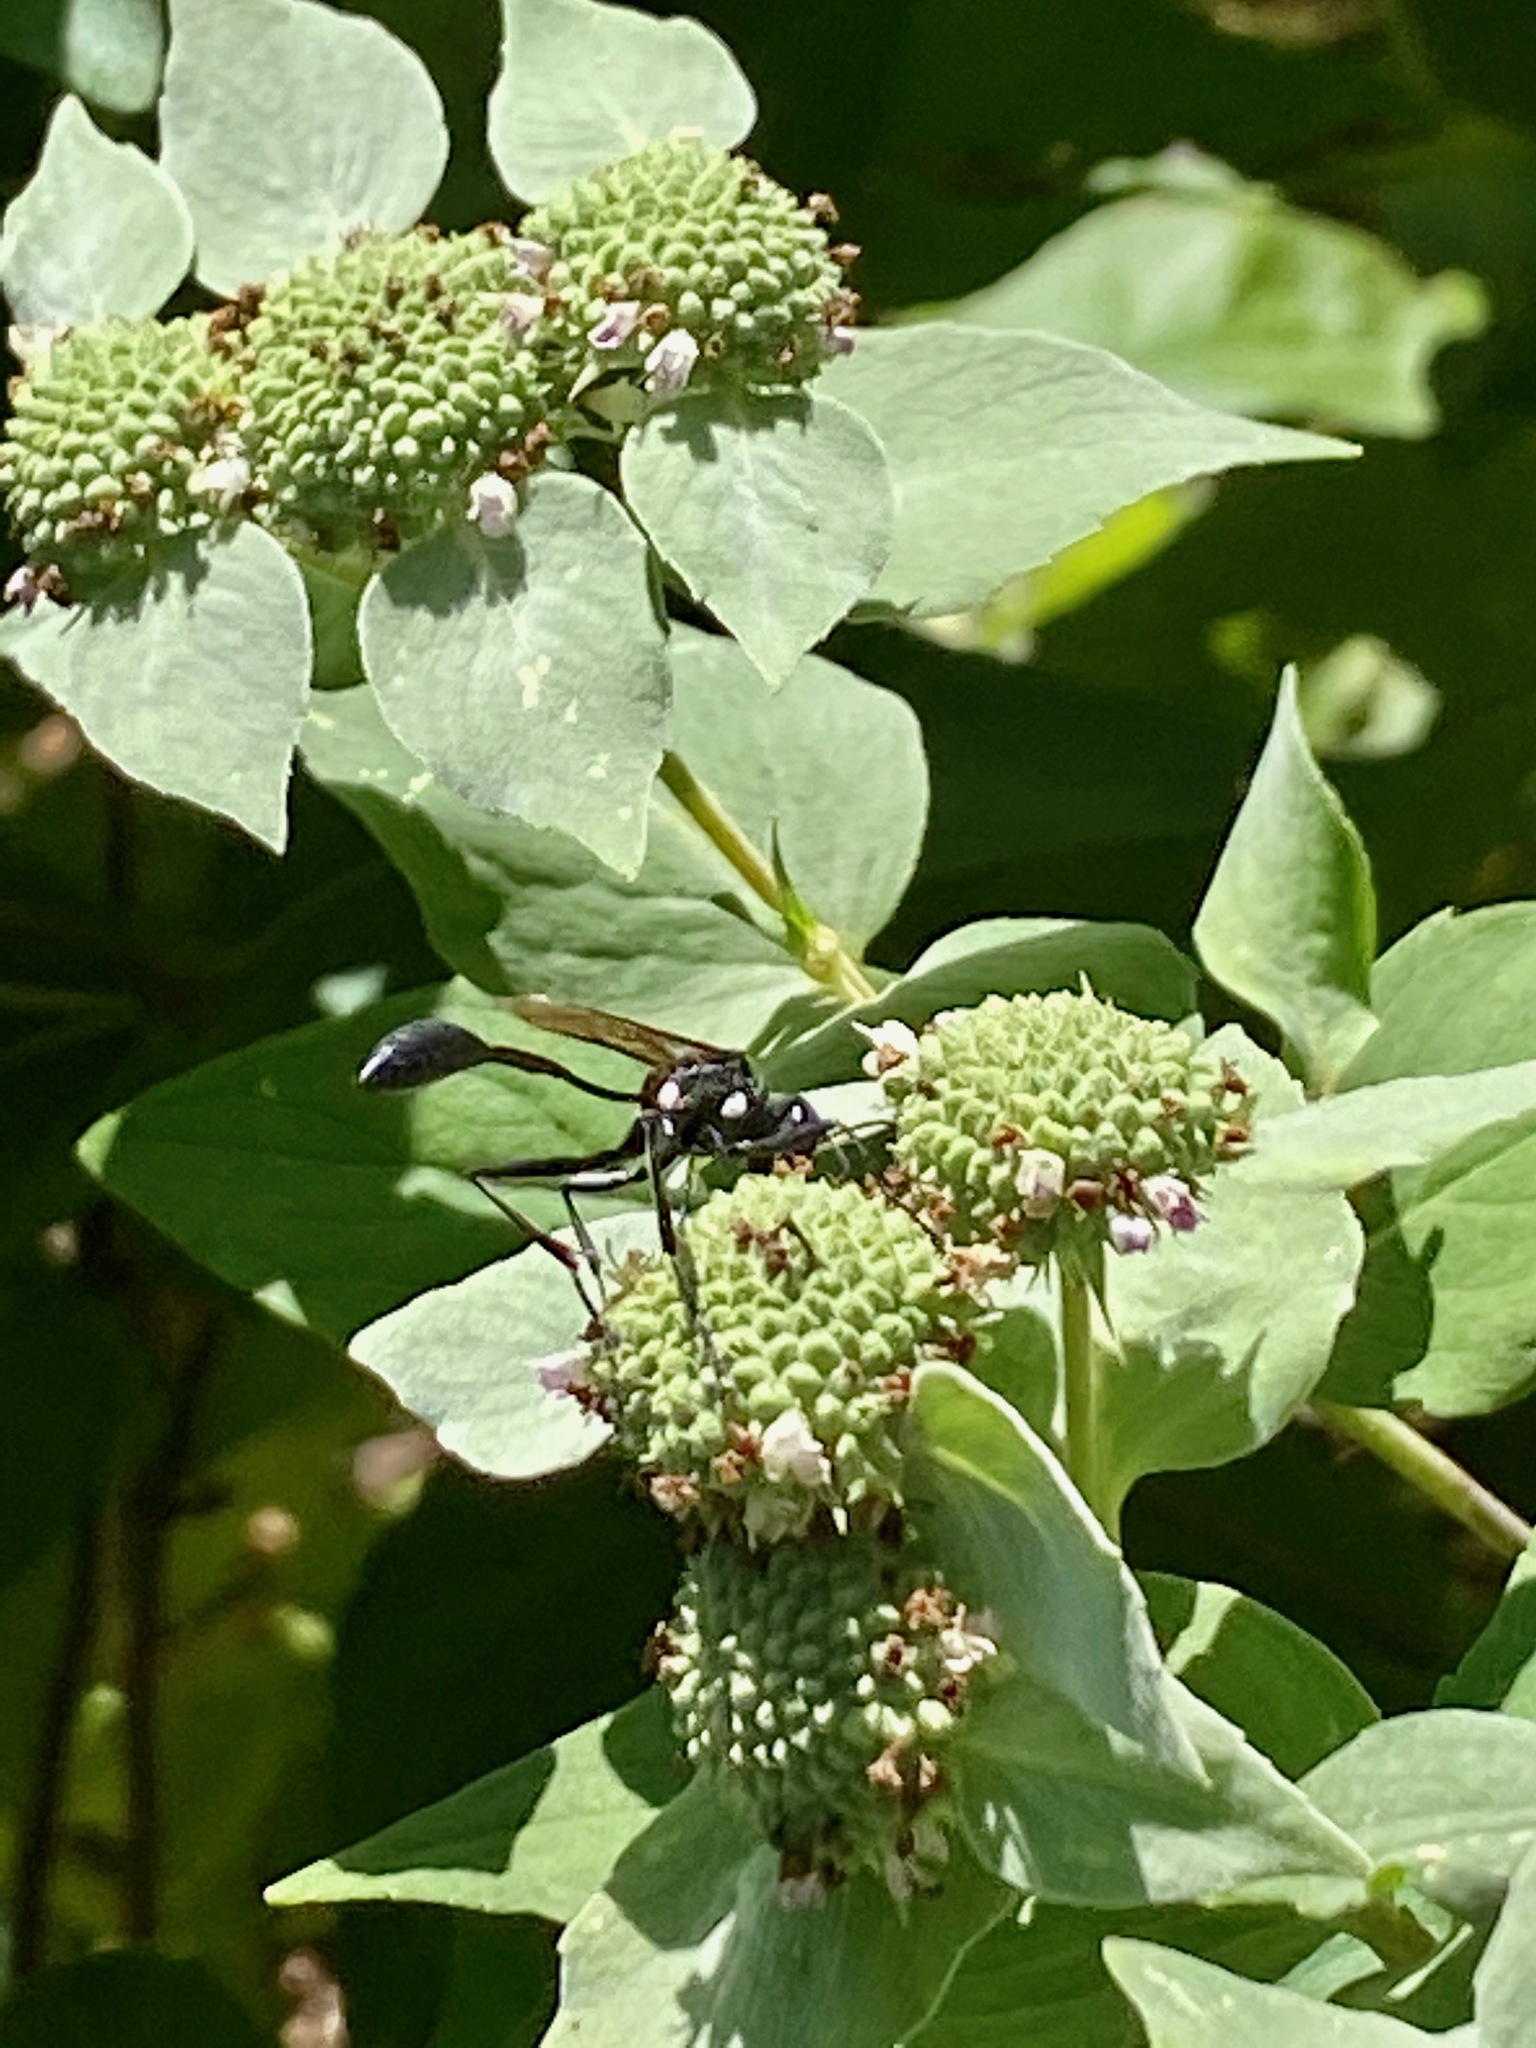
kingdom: Animalia
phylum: Arthropoda
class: Insecta
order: Hymenoptera
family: Sphecidae
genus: Eremnophila
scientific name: Eremnophila aureonotata
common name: Gold-marked thread-waisted wasp
